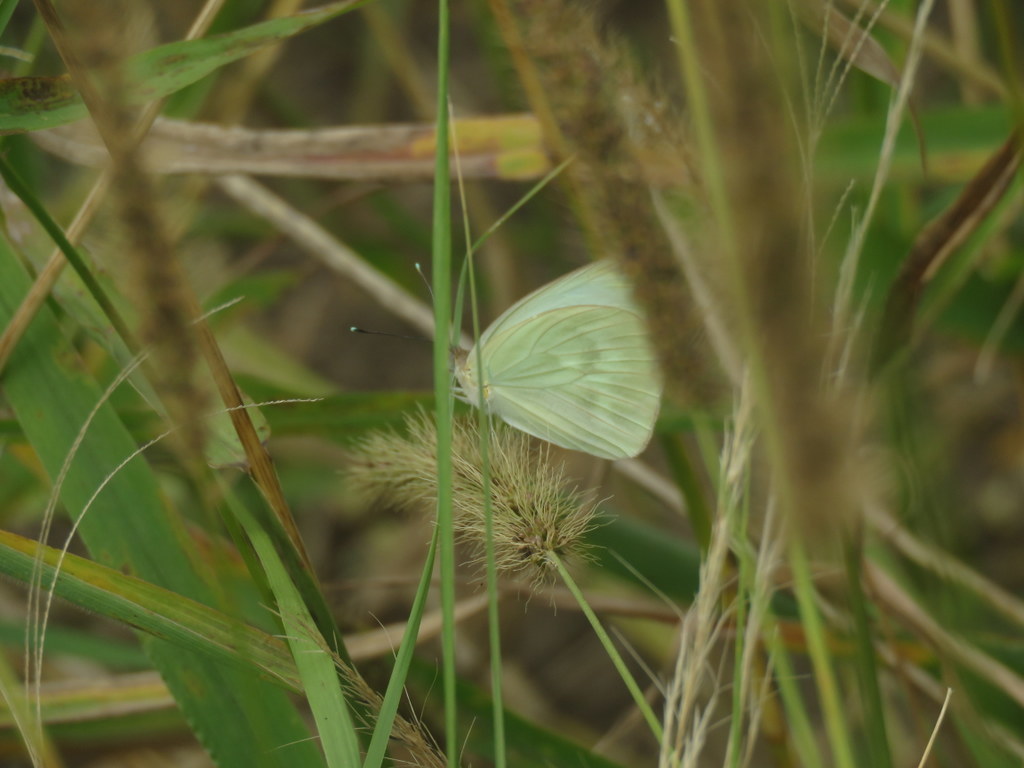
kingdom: Animalia
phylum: Arthropoda
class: Insecta
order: Lepidoptera
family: Pieridae
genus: Ascia
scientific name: Ascia monuste
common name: Great southern white
